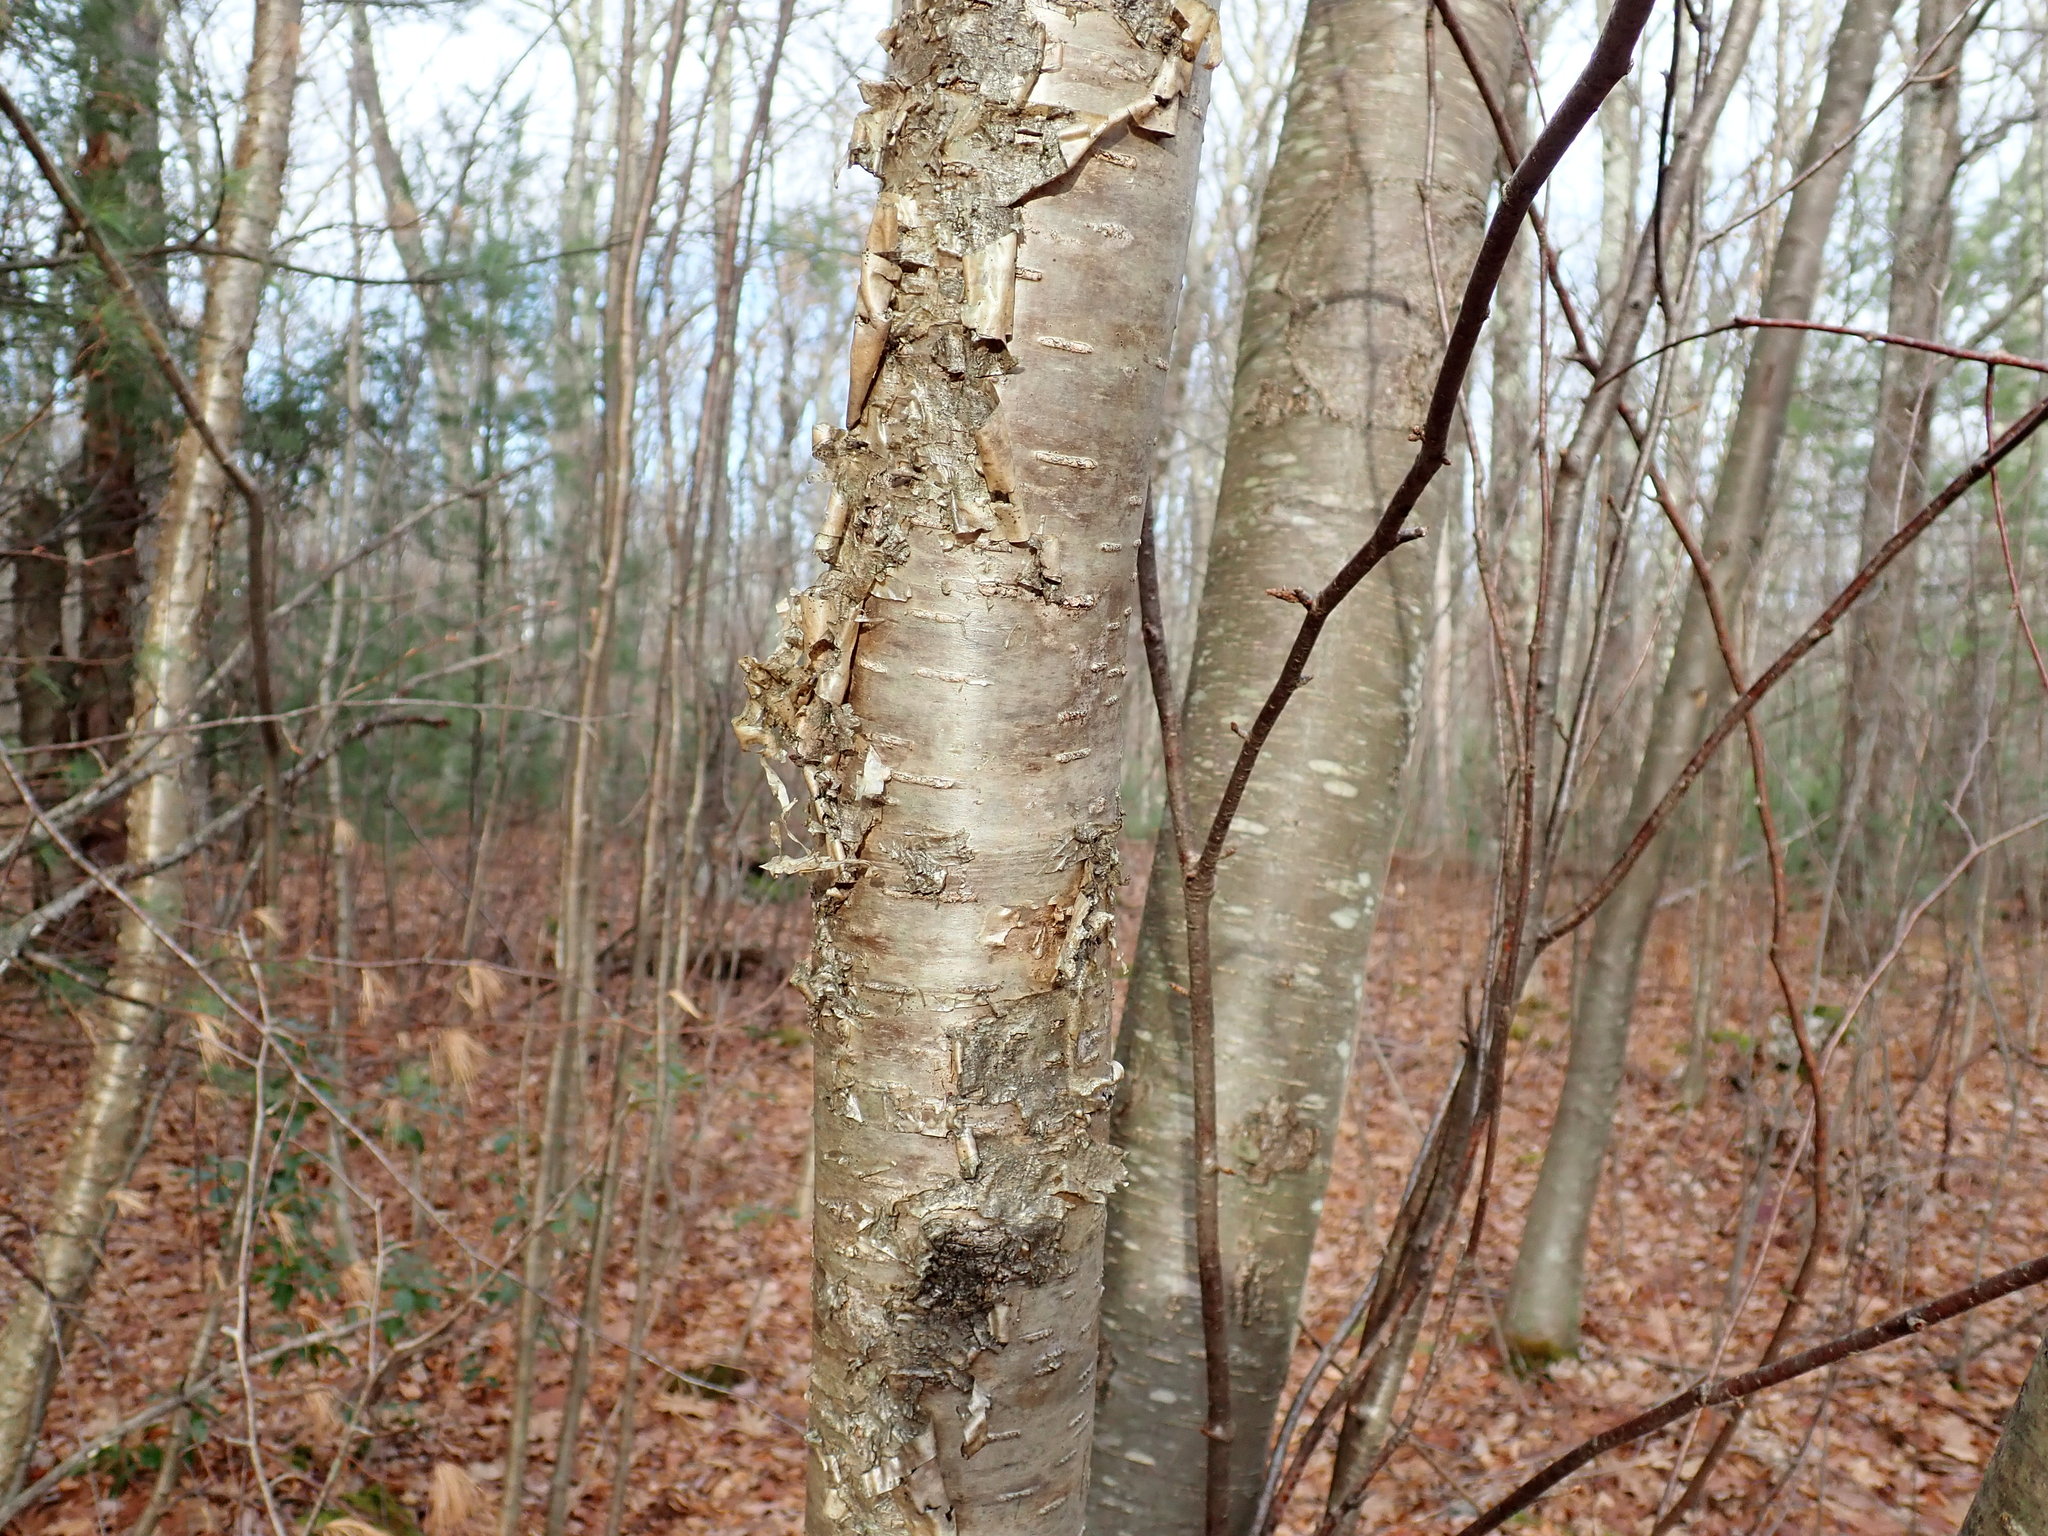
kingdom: Plantae
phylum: Tracheophyta
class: Magnoliopsida
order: Fagales
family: Betulaceae
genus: Betula
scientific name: Betula alleghaniensis
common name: Yellow birch
